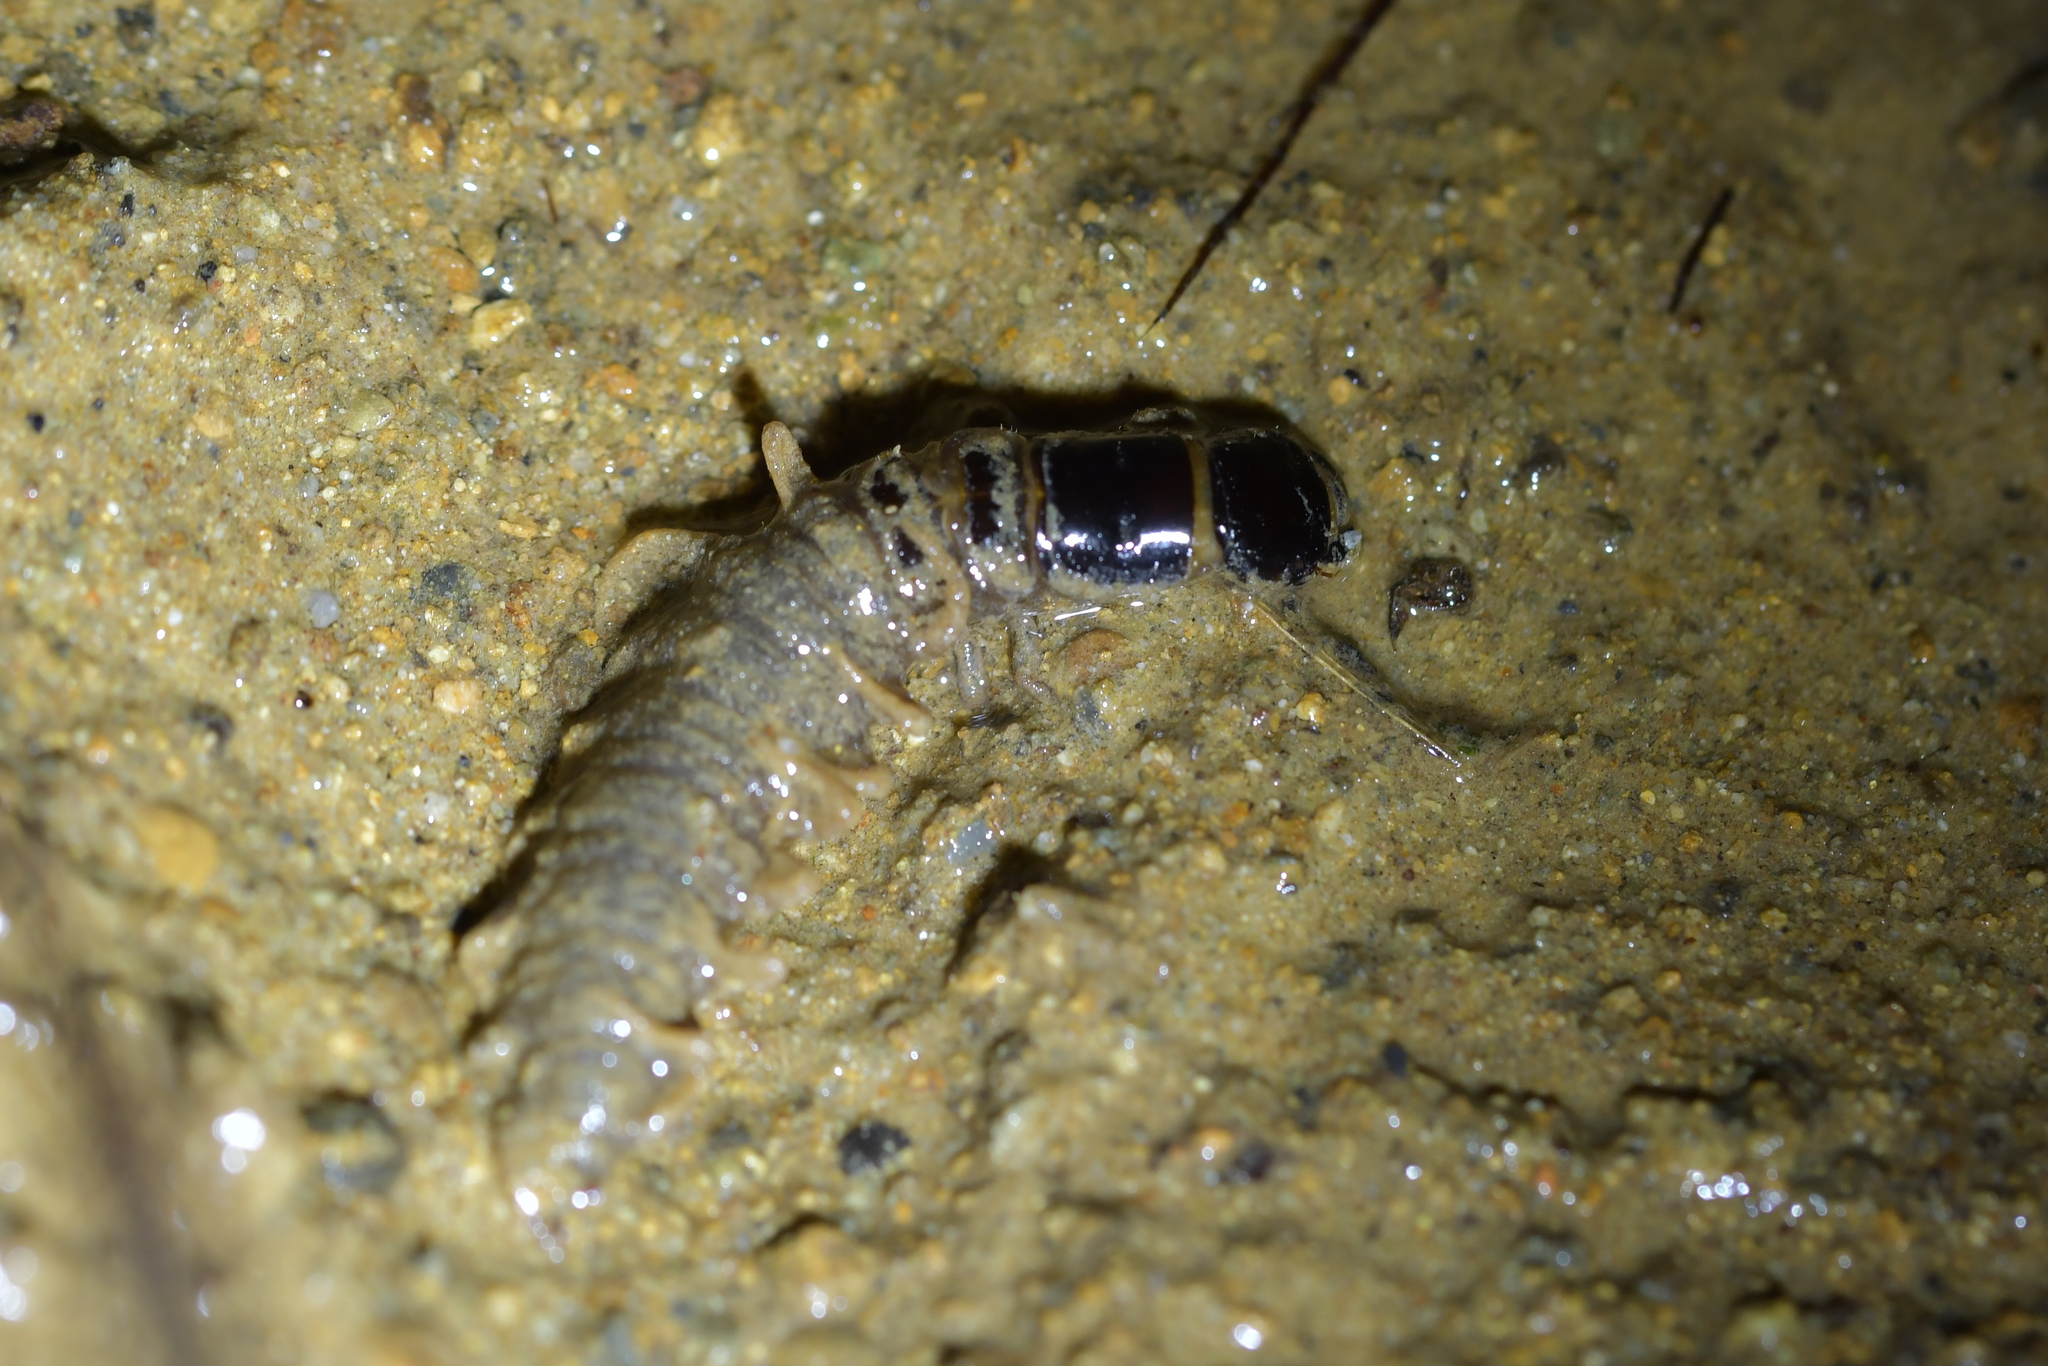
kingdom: Animalia
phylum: Arthropoda
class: Insecta
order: Megaloptera
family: Corydalidae
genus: Archichauliodes
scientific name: Archichauliodes diversus
